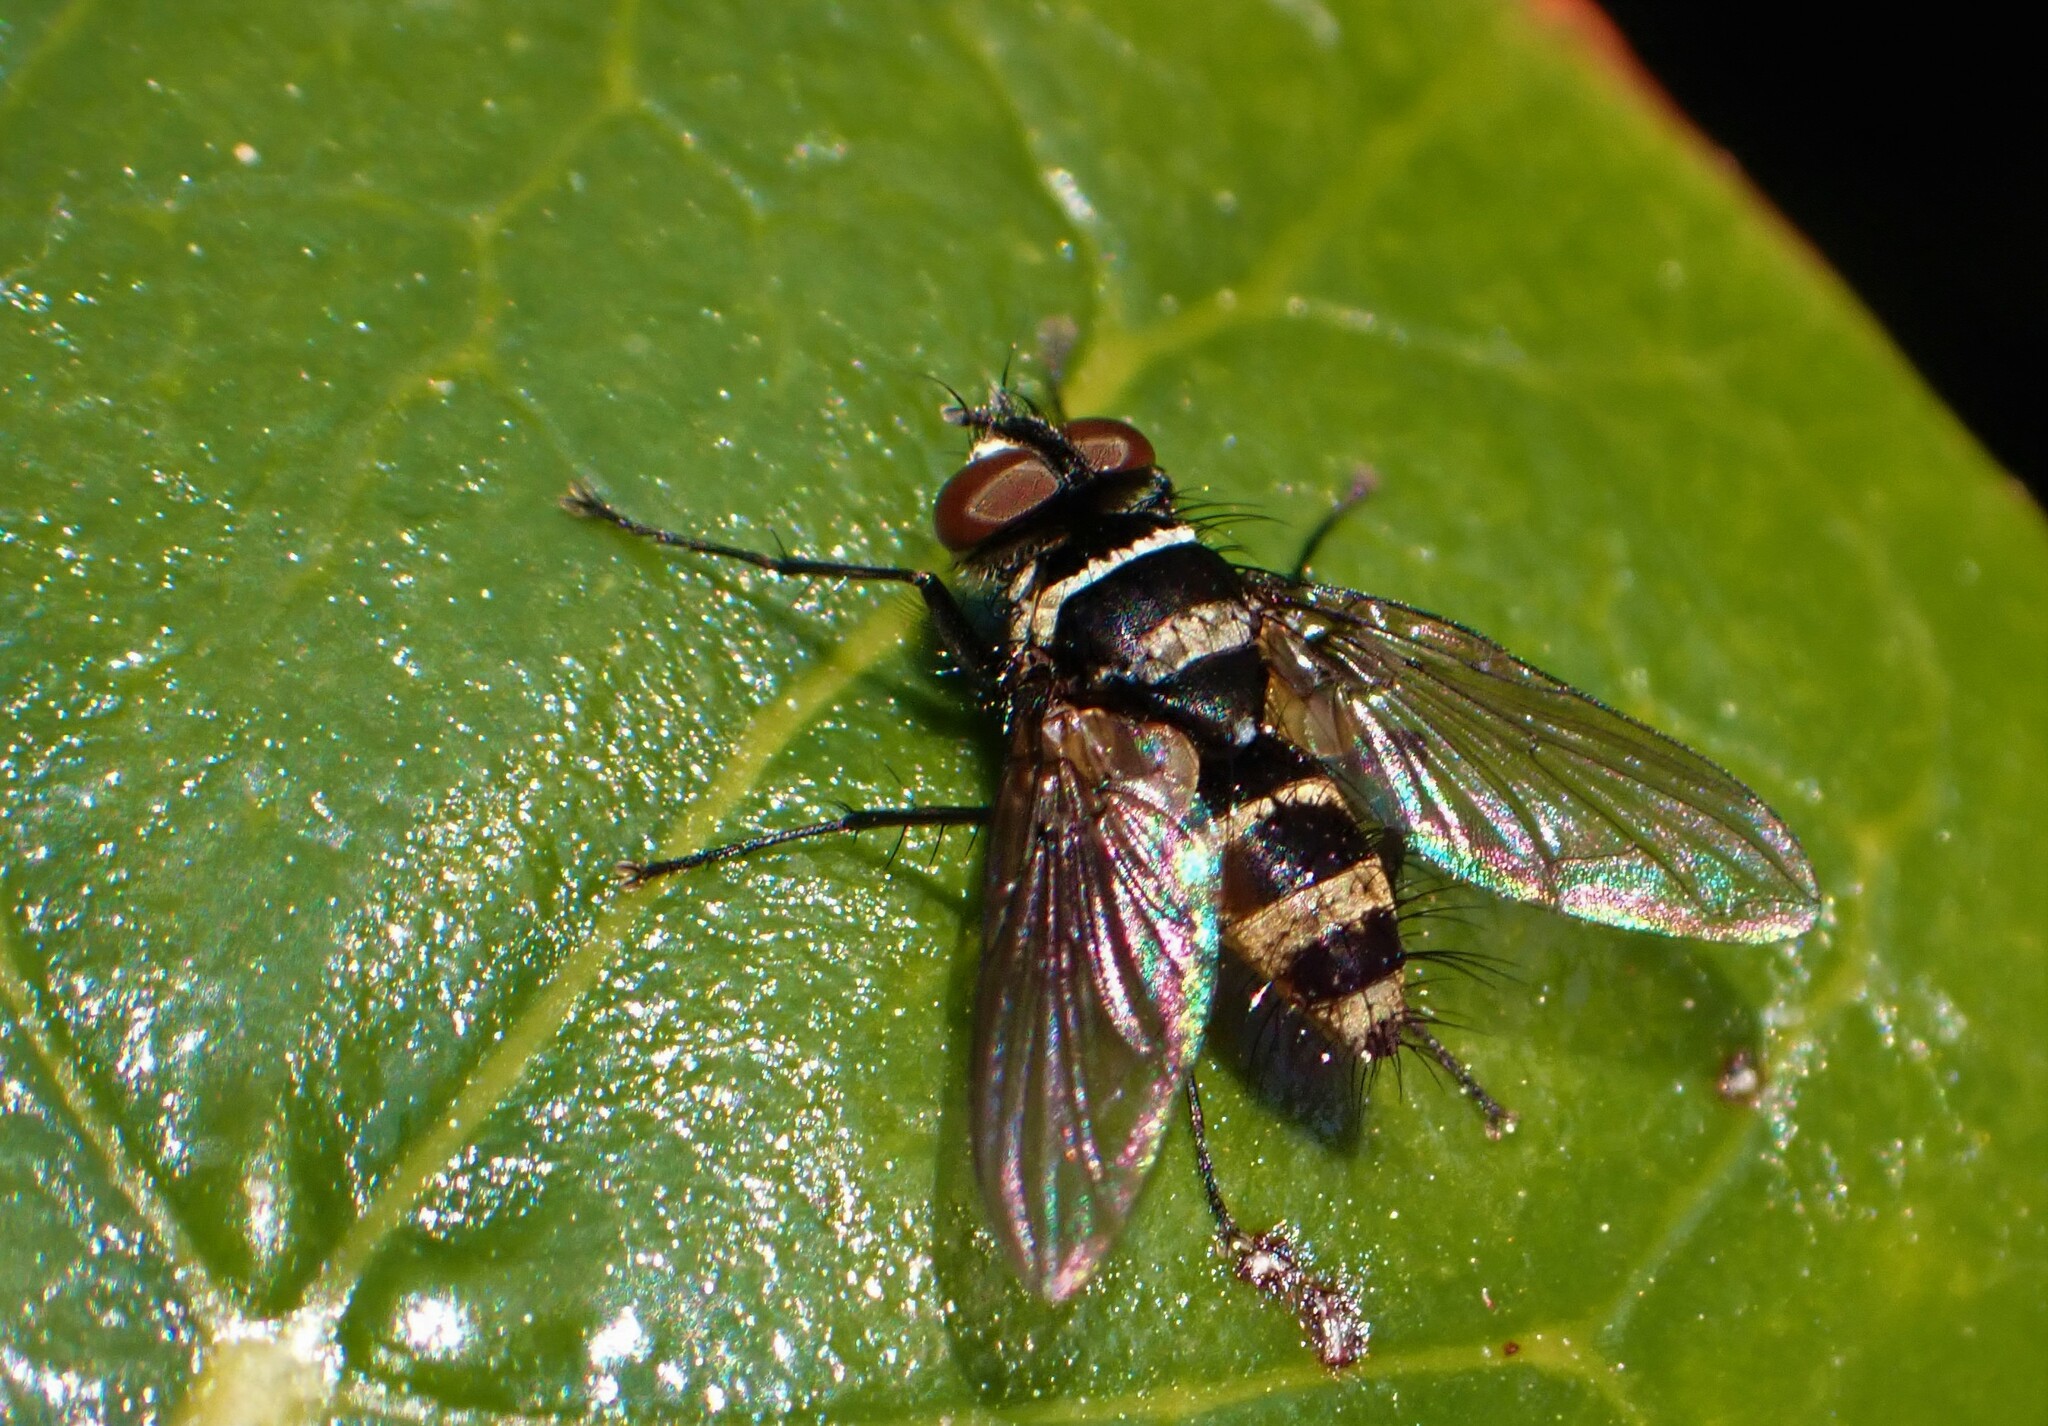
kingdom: Animalia
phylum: Arthropoda
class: Insecta
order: Diptera
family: Tachinidae
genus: Trigonospila
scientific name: Trigonospila brevifacies
